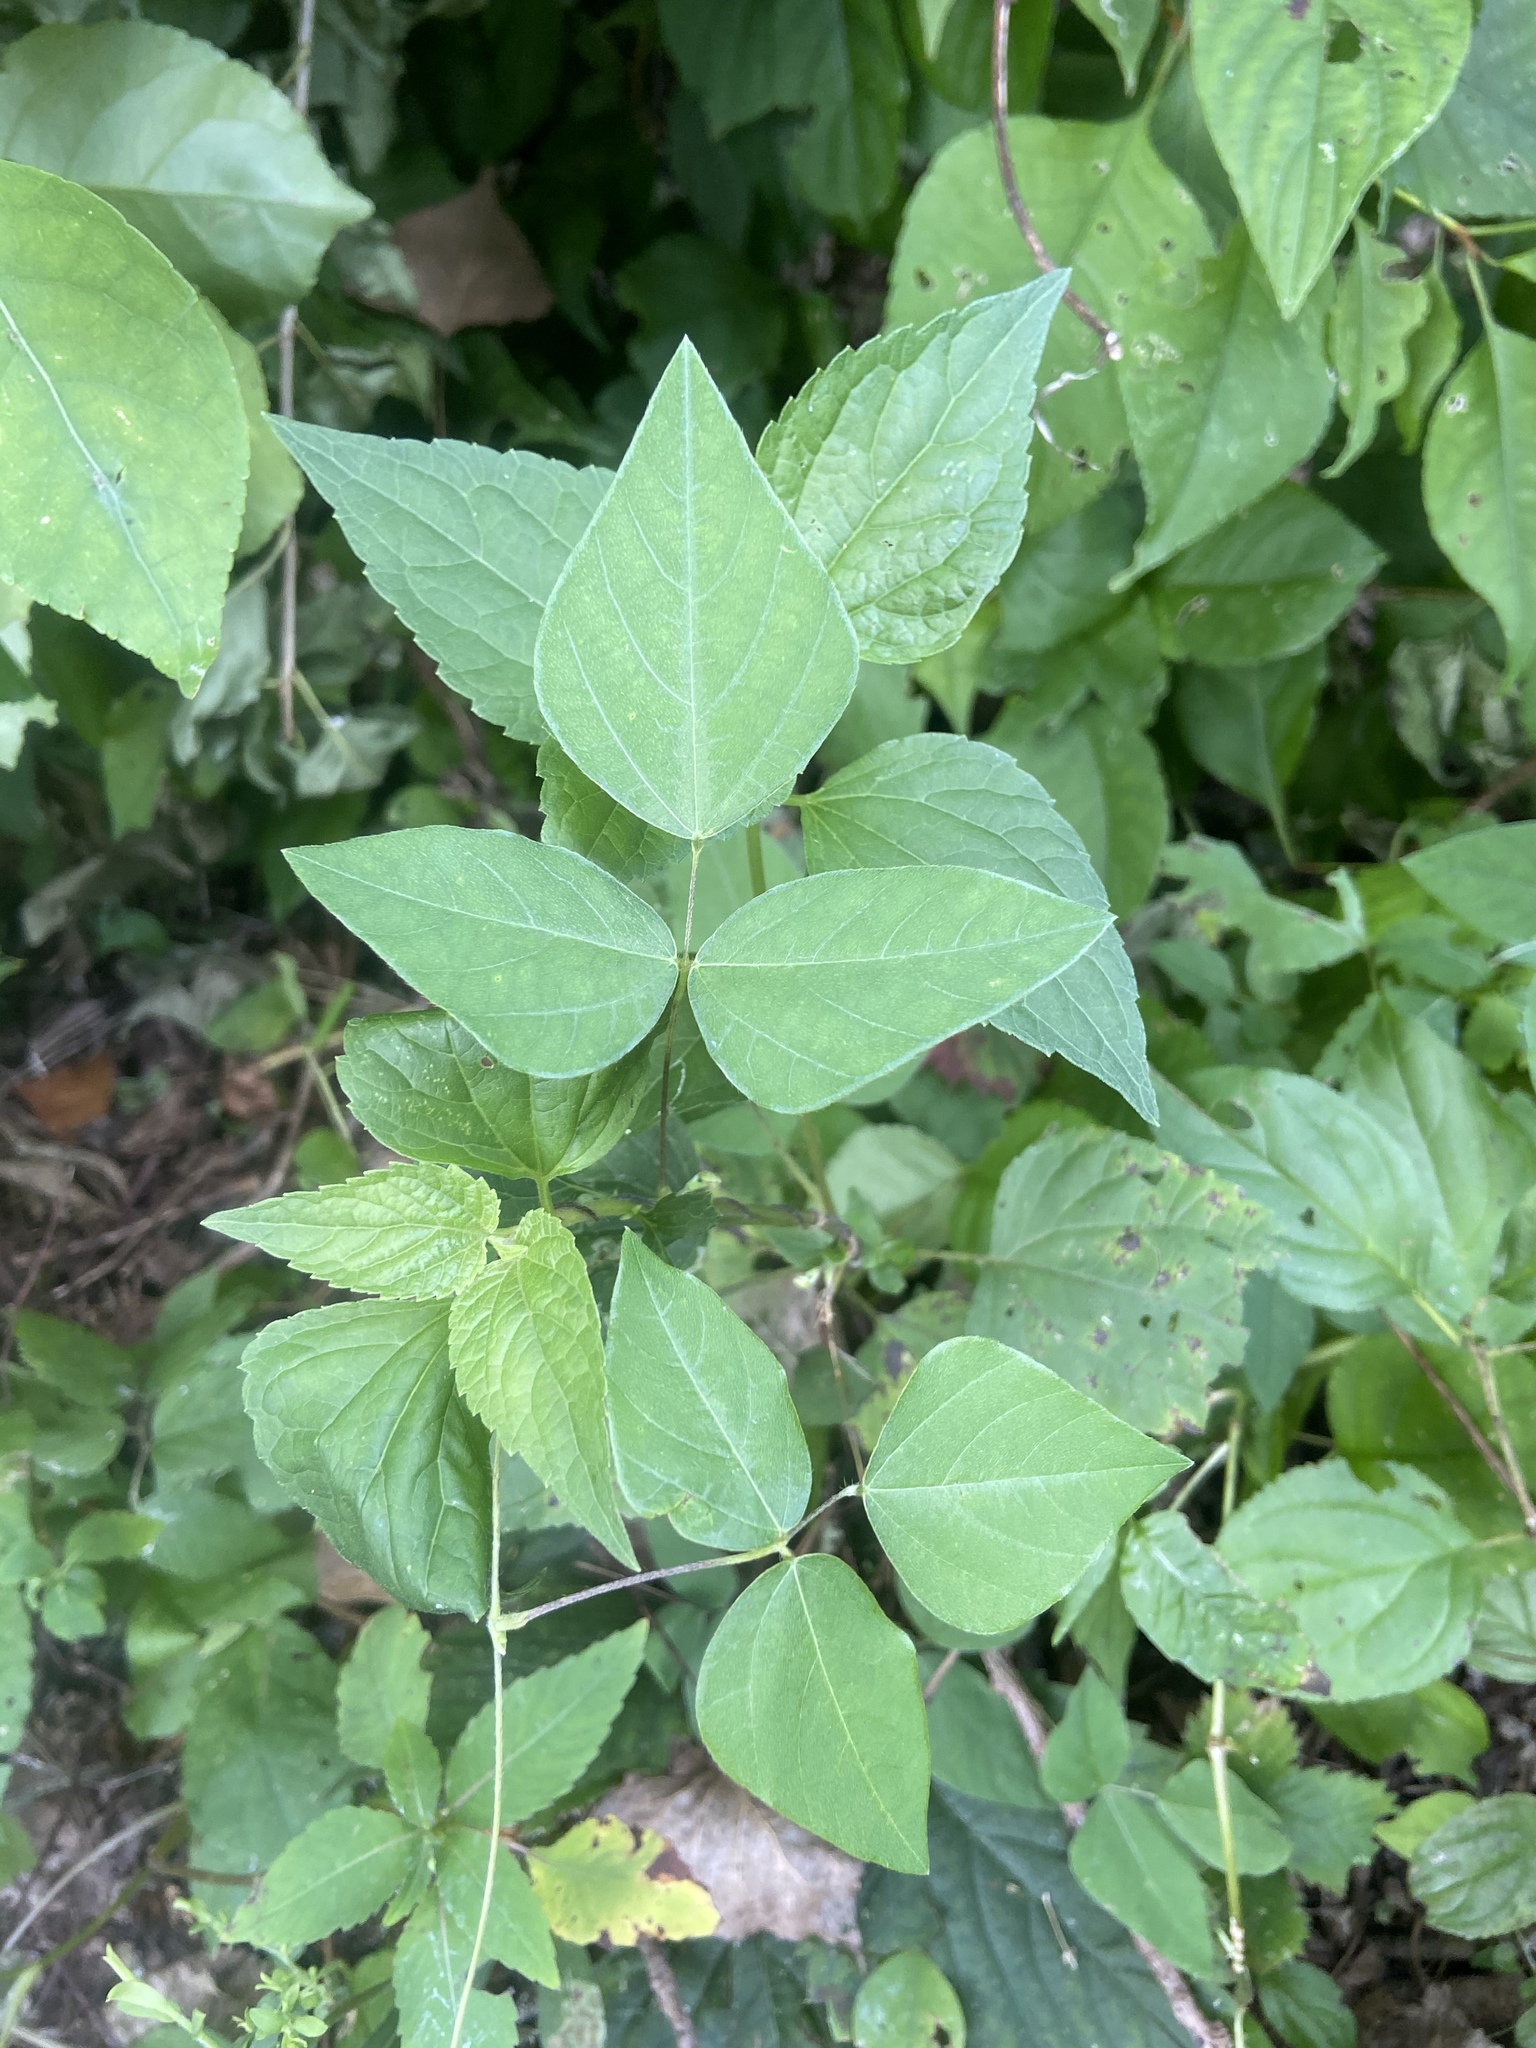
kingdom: Plantae
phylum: Tracheophyta
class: Magnoliopsida
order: Fabales
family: Fabaceae
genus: Amphicarpaea
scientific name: Amphicarpaea bracteata
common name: American hog peanut
